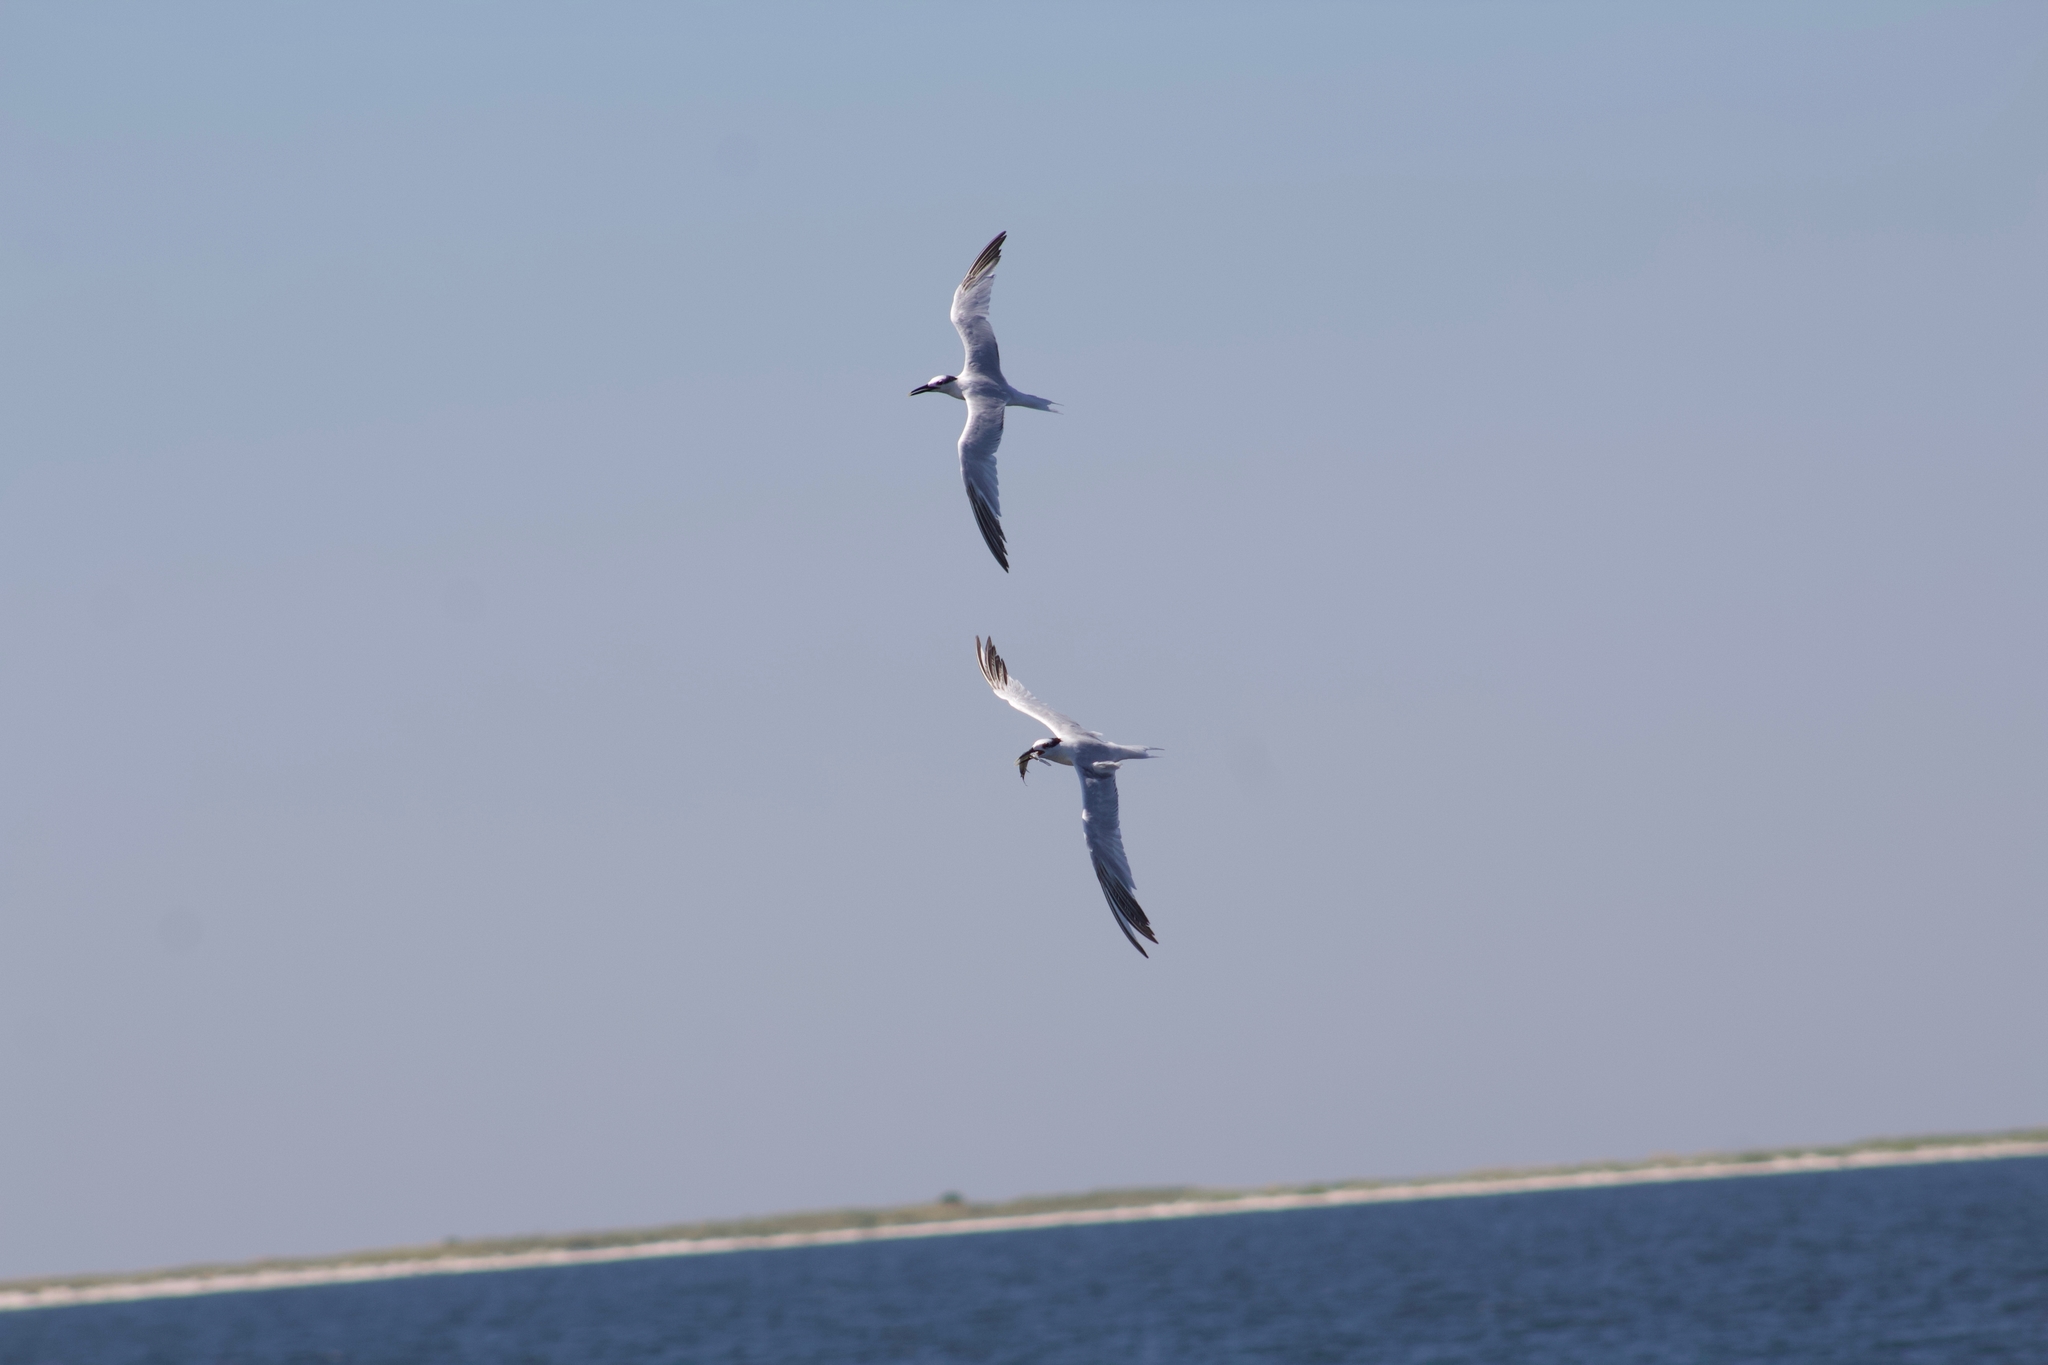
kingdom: Animalia
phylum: Chordata
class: Aves
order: Charadriiformes
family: Laridae
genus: Thalasseus
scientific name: Thalasseus sandvicensis
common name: Sandwich tern
